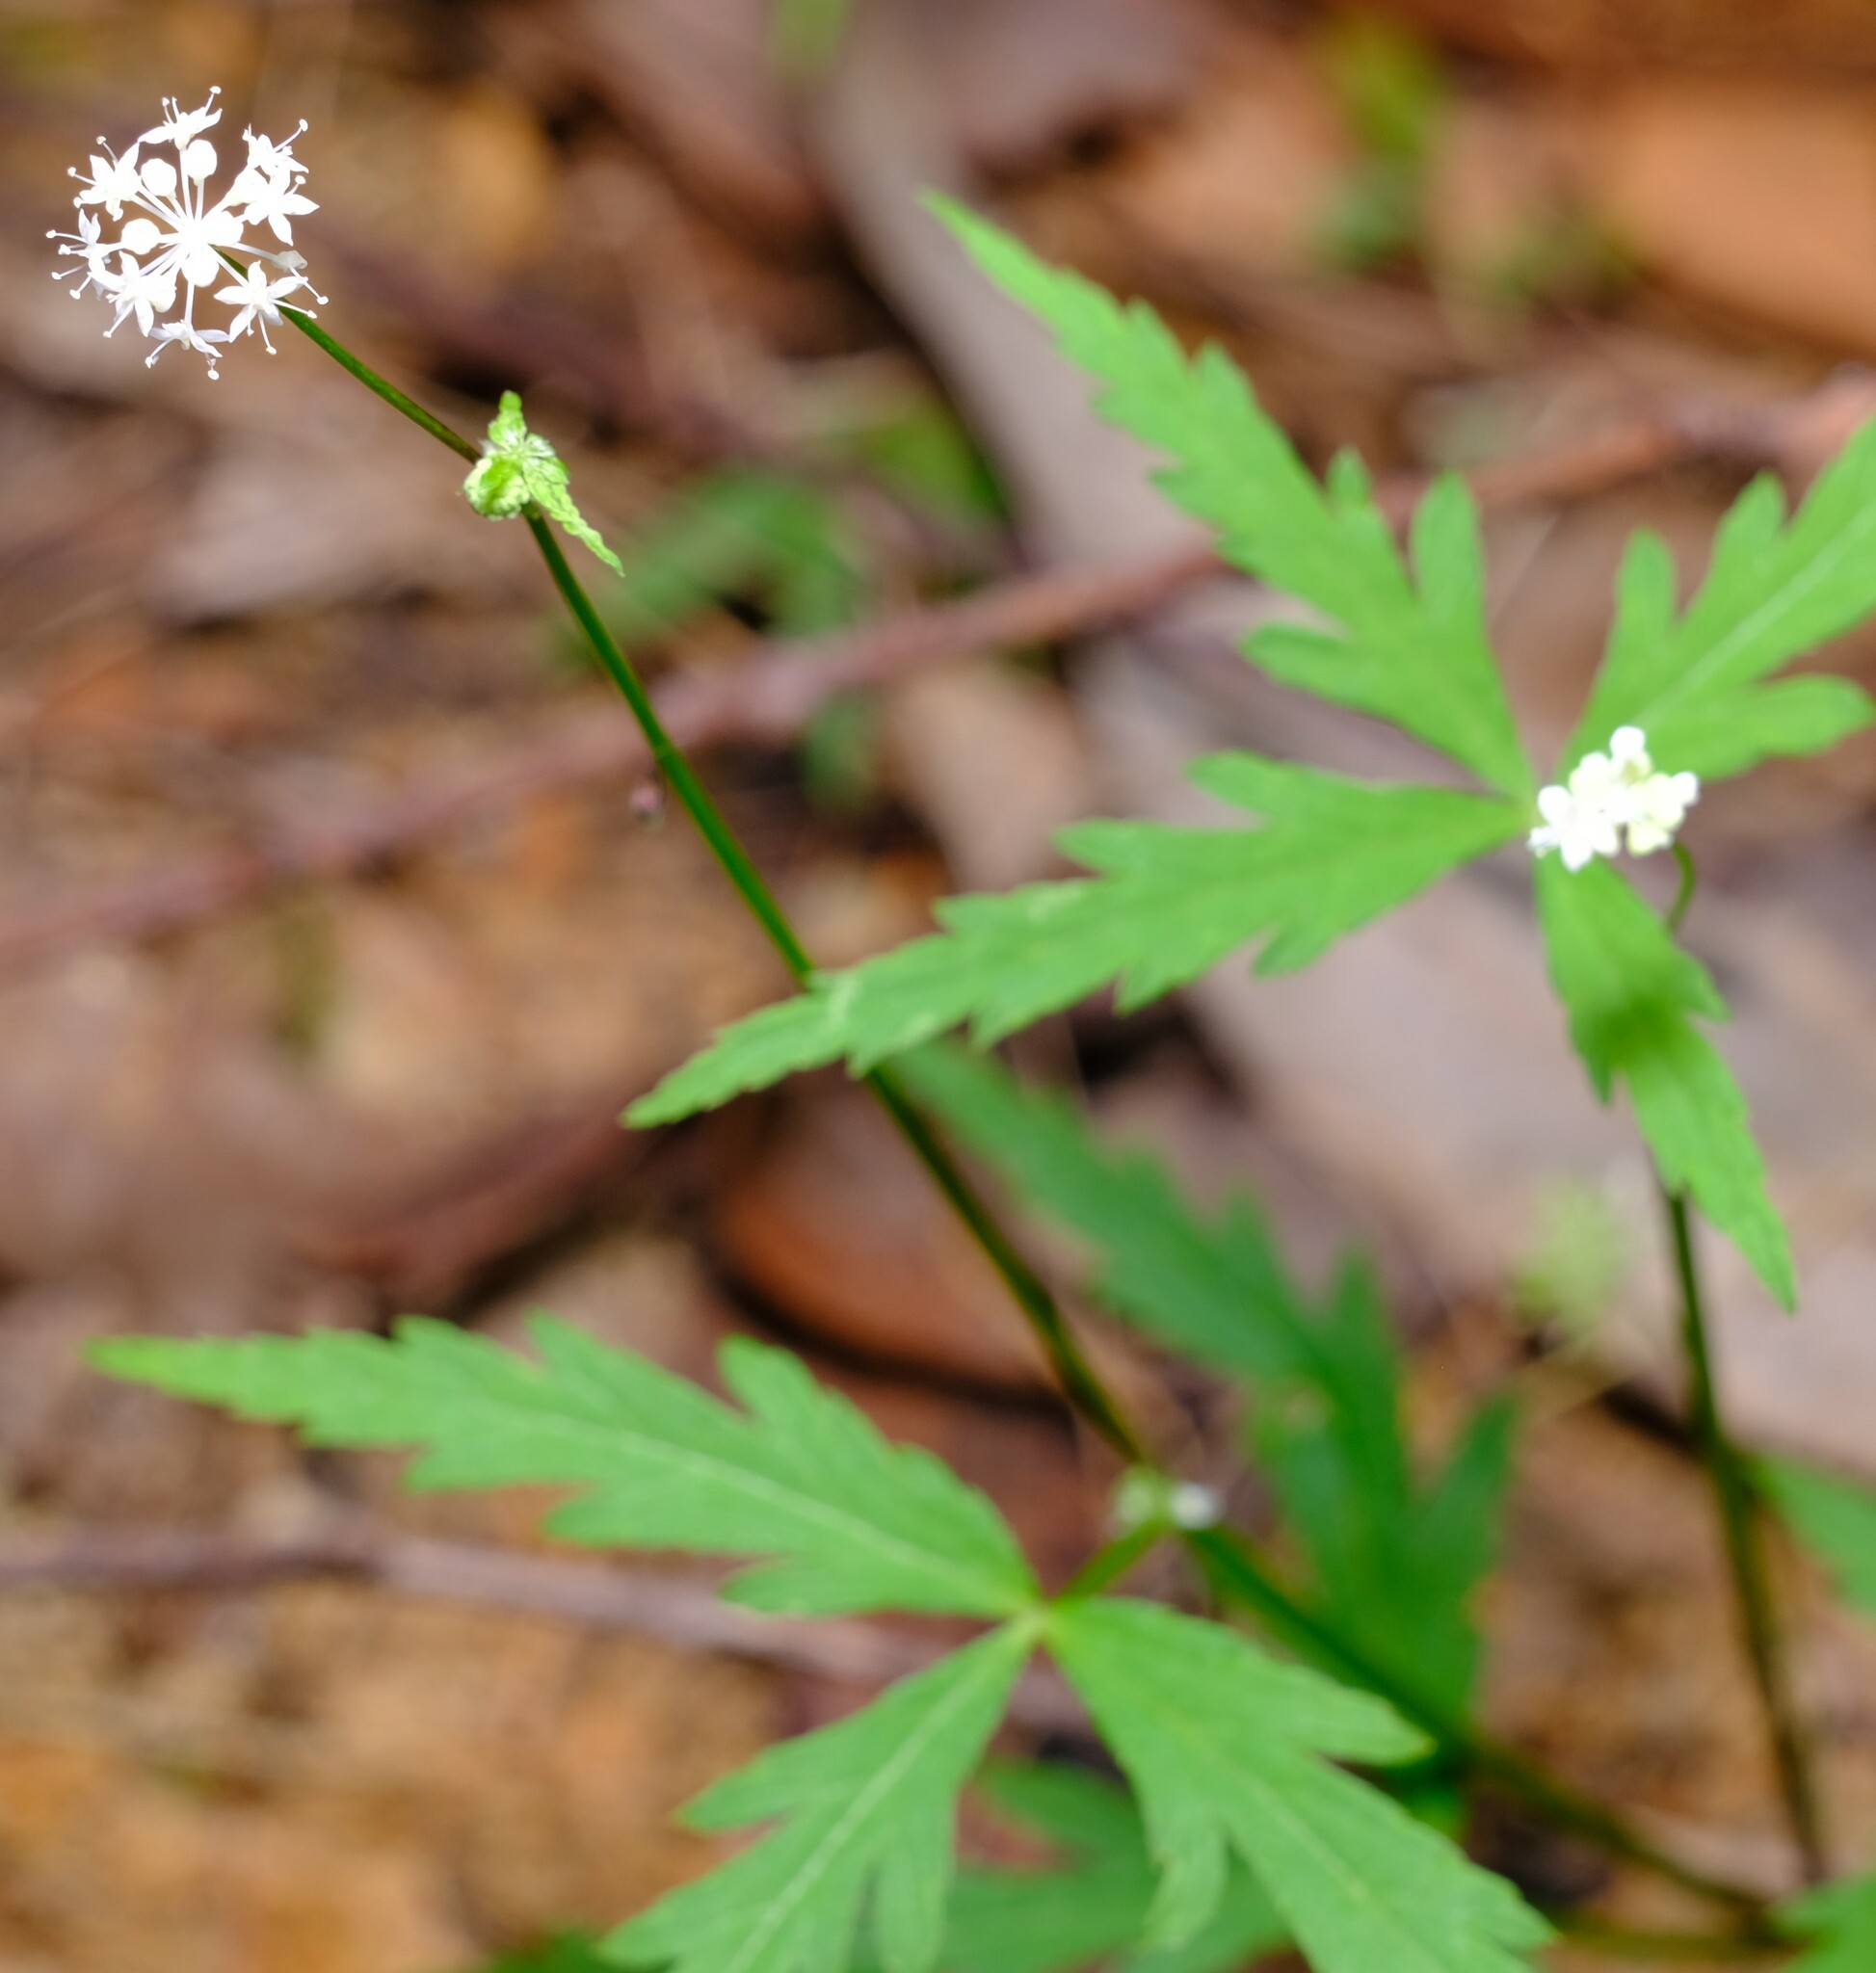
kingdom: Plantae
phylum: Tracheophyta
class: Magnoliopsida
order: Apiales
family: Araliaceae
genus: Hydrocotyle
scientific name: Hydrocotyle geraniifolia
